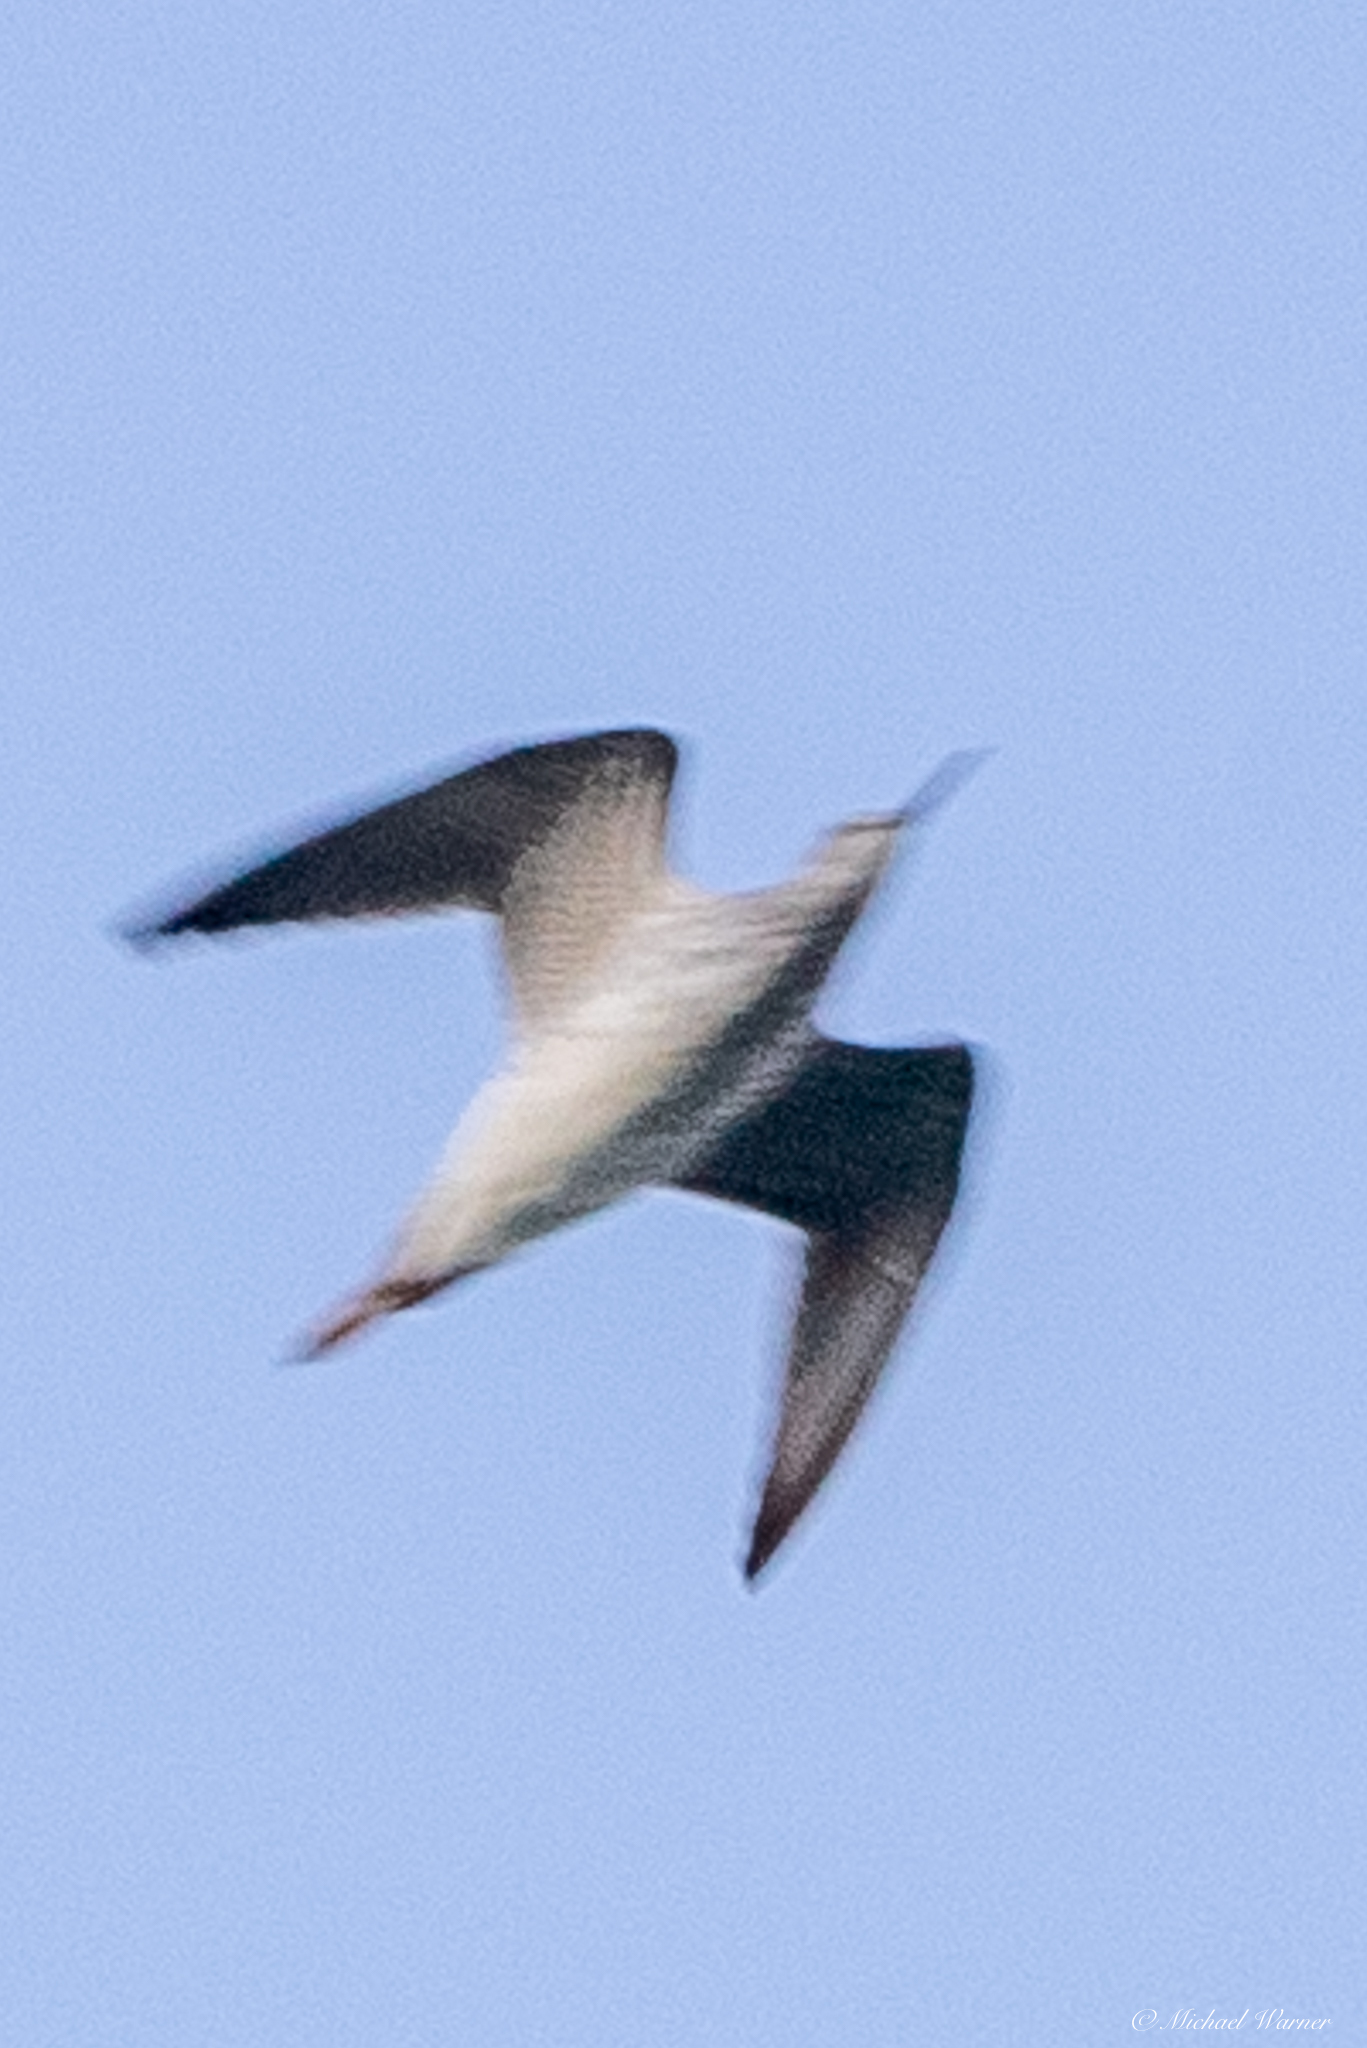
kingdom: Animalia
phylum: Chordata
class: Aves
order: Charadriiformes
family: Scolopacidae
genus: Tringa
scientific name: Tringa melanoleuca
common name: Greater yellowlegs
